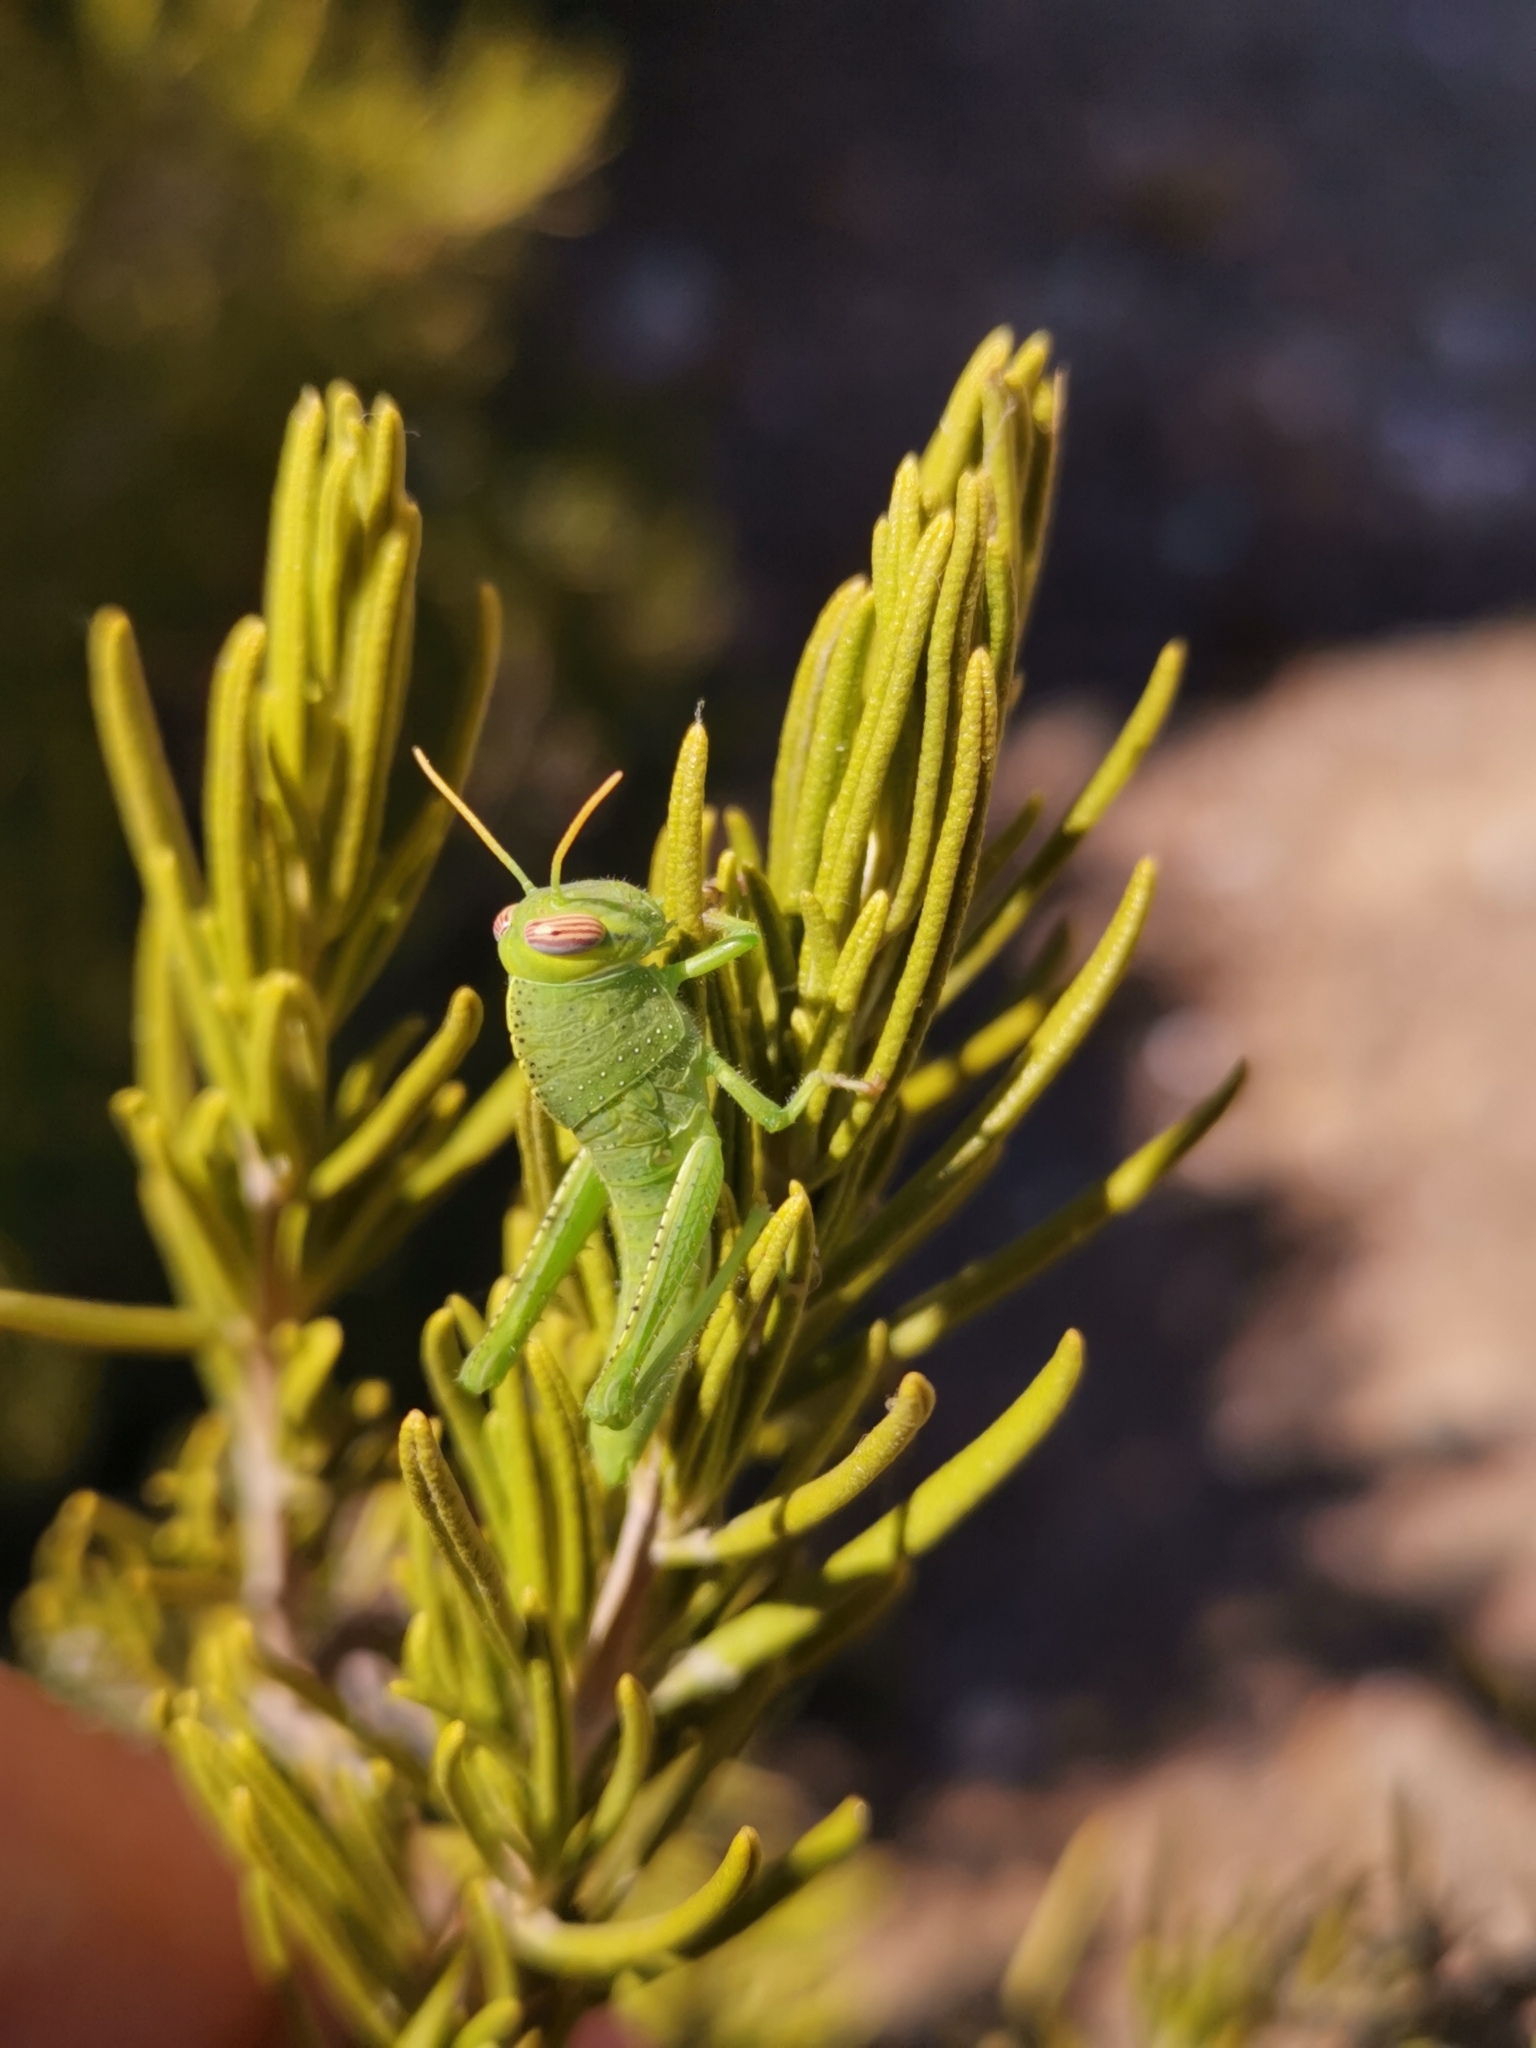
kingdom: Animalia
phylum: Arthropoda
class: Insecta
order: Orthoptera
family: Acrididae
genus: Anacridium
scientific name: Anacridium aegyptium
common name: Egyptian grasshopper
